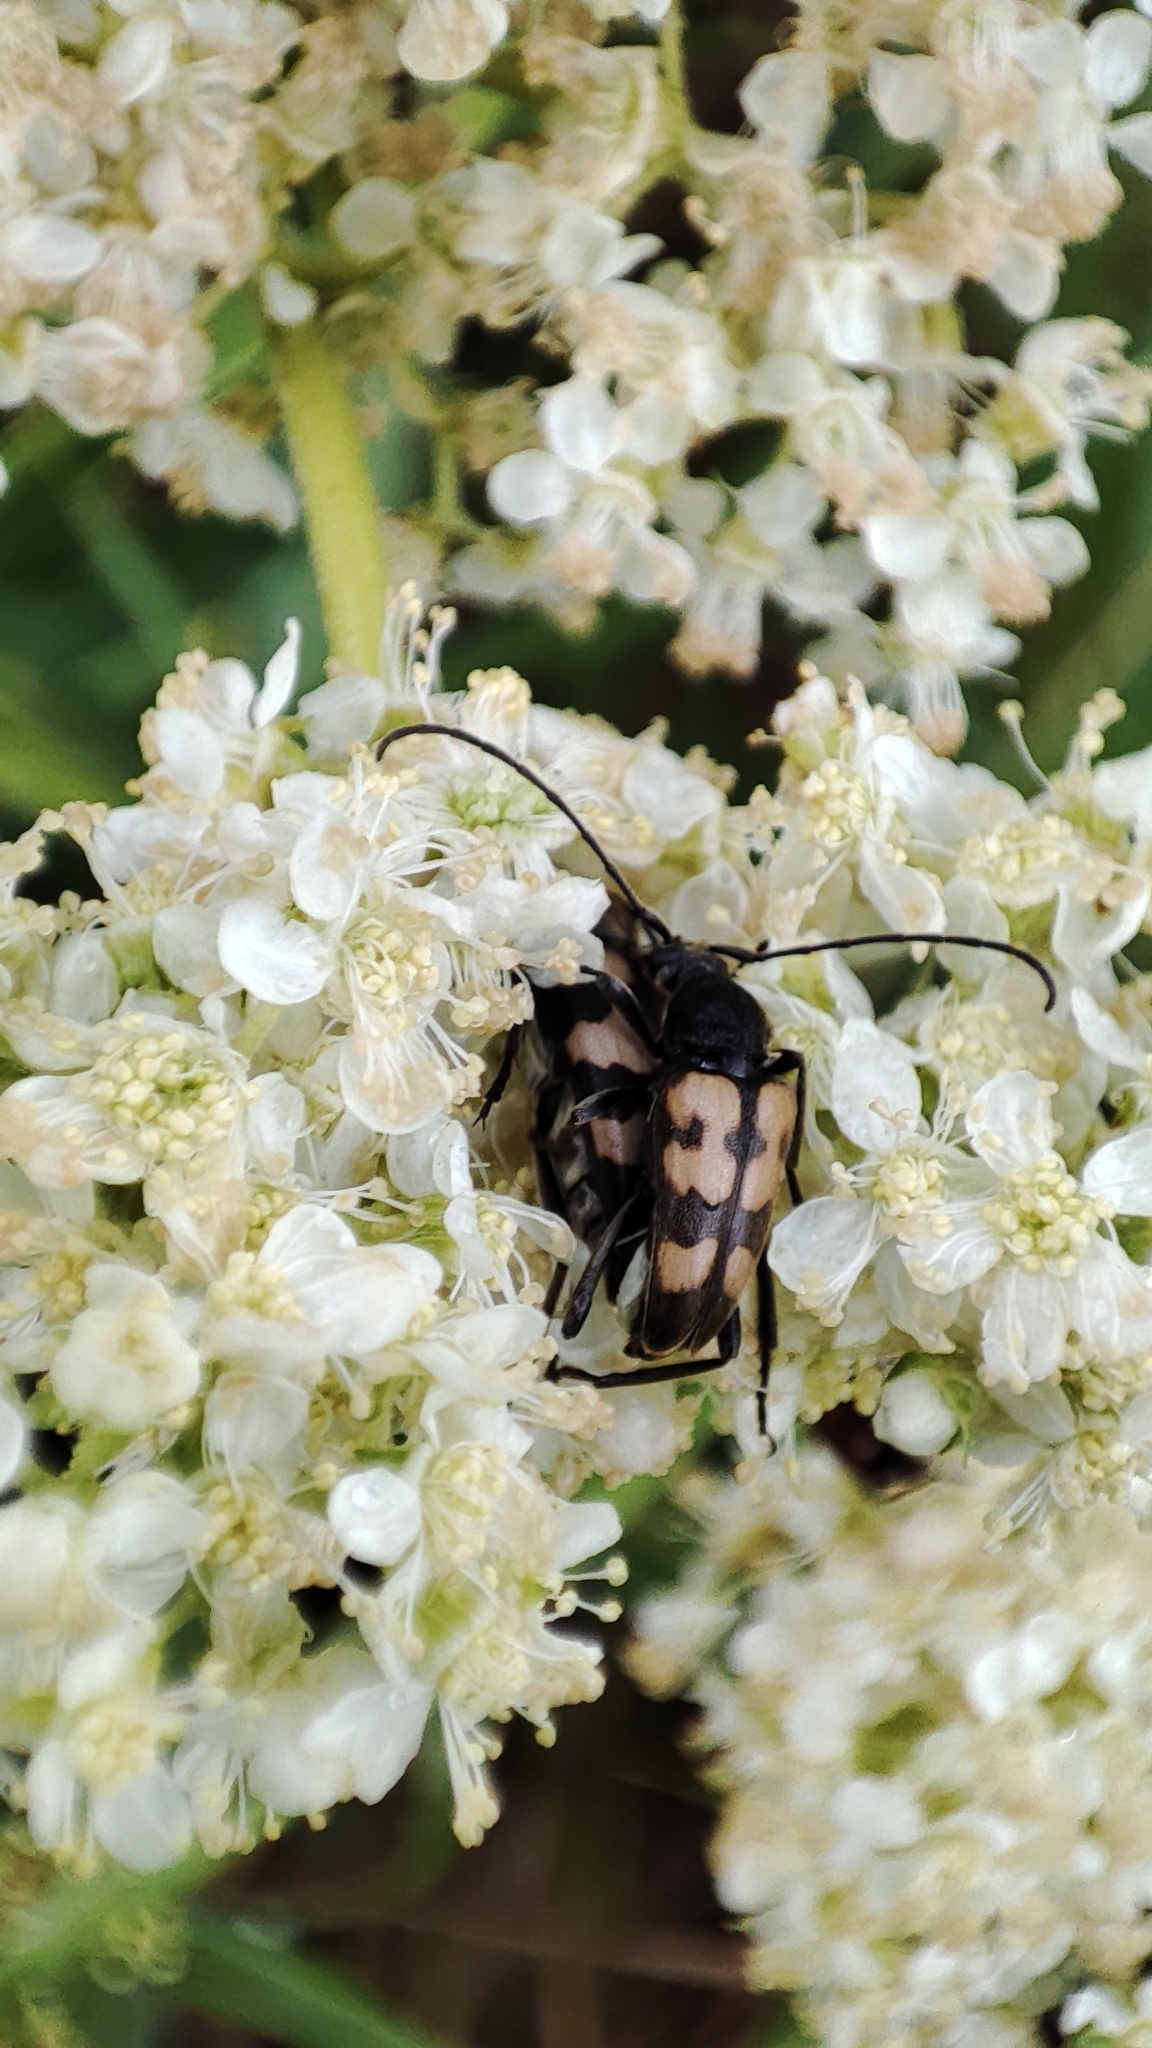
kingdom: Animalia
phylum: Arthropoda
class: Insecta
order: Coleoptera
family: Cerambycidae
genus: Pachytodes
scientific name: Pachytodes
